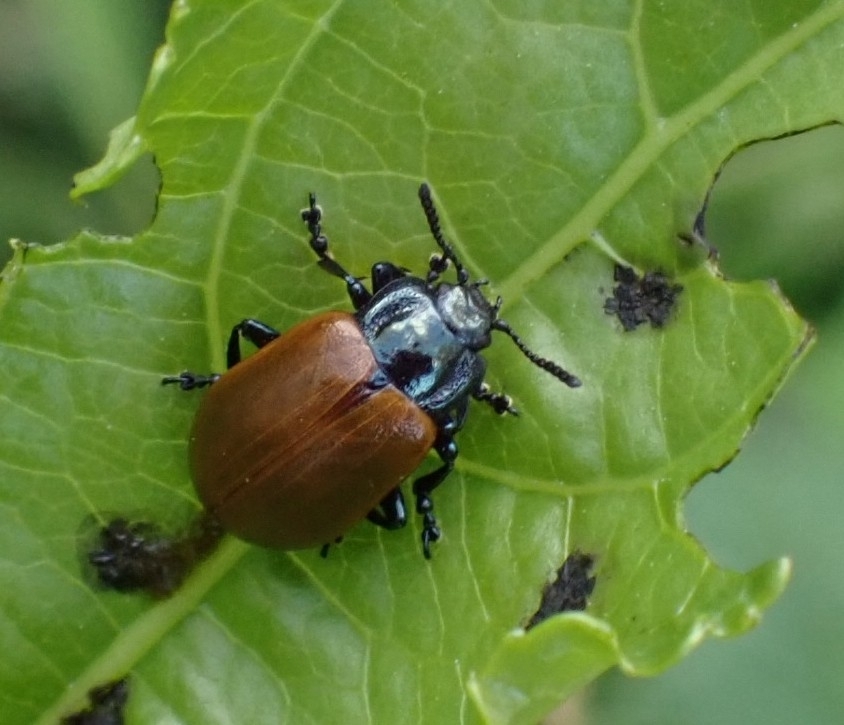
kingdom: Animalia
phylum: Arthropoda
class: Insecta
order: Coleoptera
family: Chrysomelidae
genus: Chrysomela
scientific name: Chrysomela populi
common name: Red poplar leaf beetle
